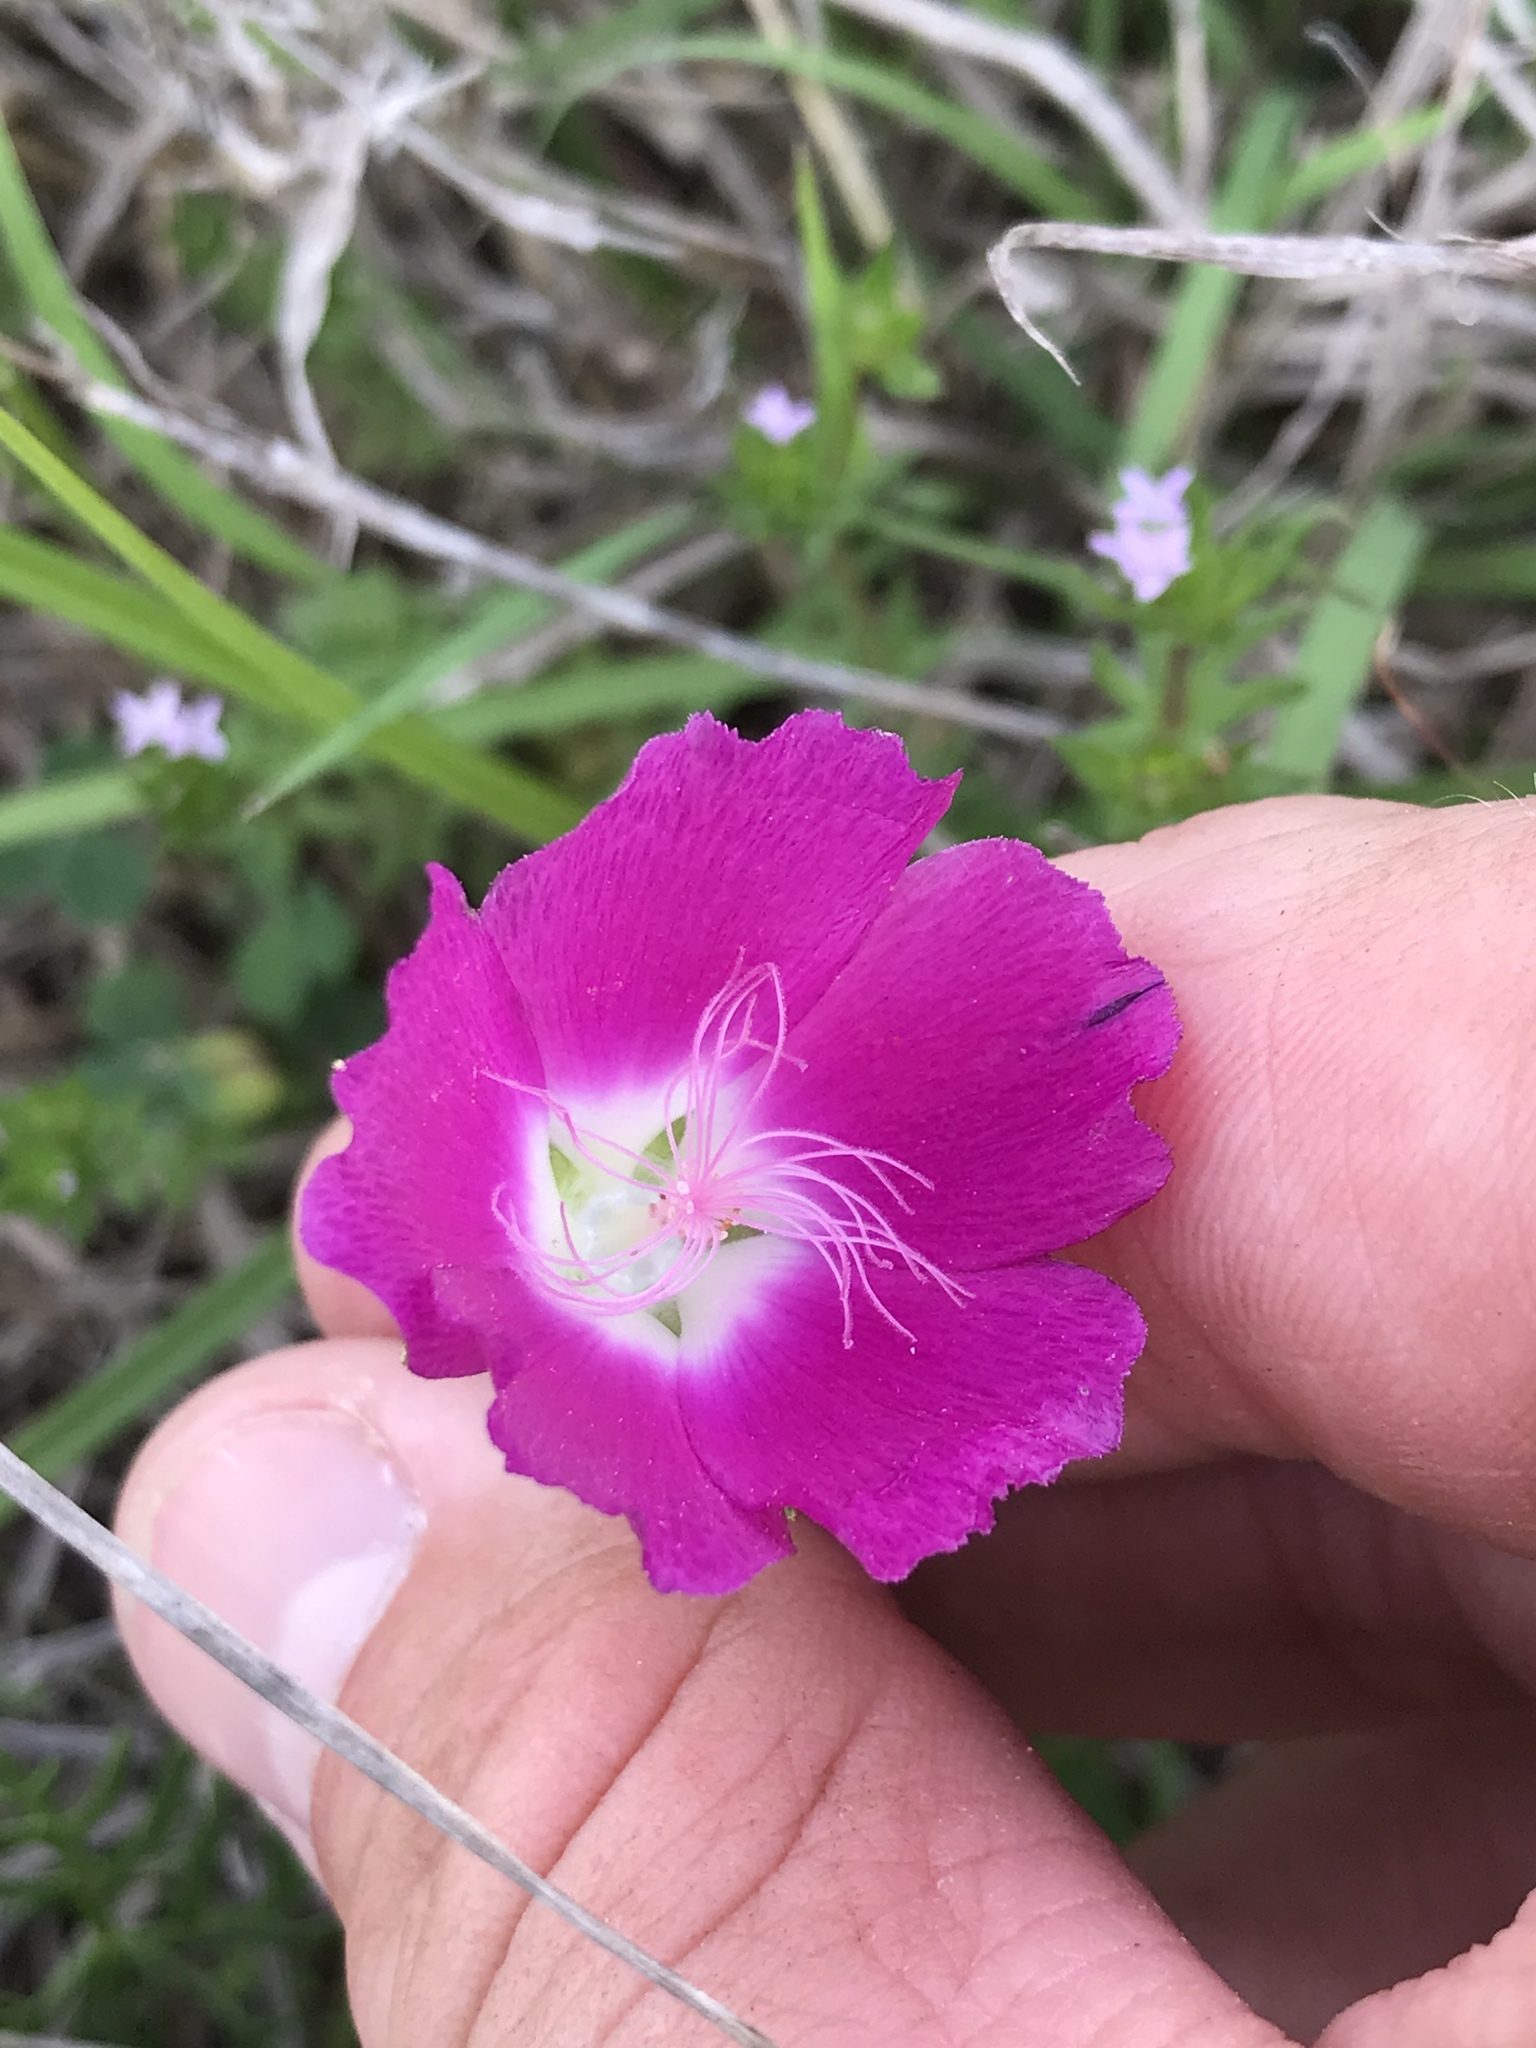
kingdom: Plantae
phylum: Tracheophyta
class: Magnoliopsida
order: Malvales
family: Malvaceae
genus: Callirhoe
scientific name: Callirhoe involucrata
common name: Purple poppy-mallow
